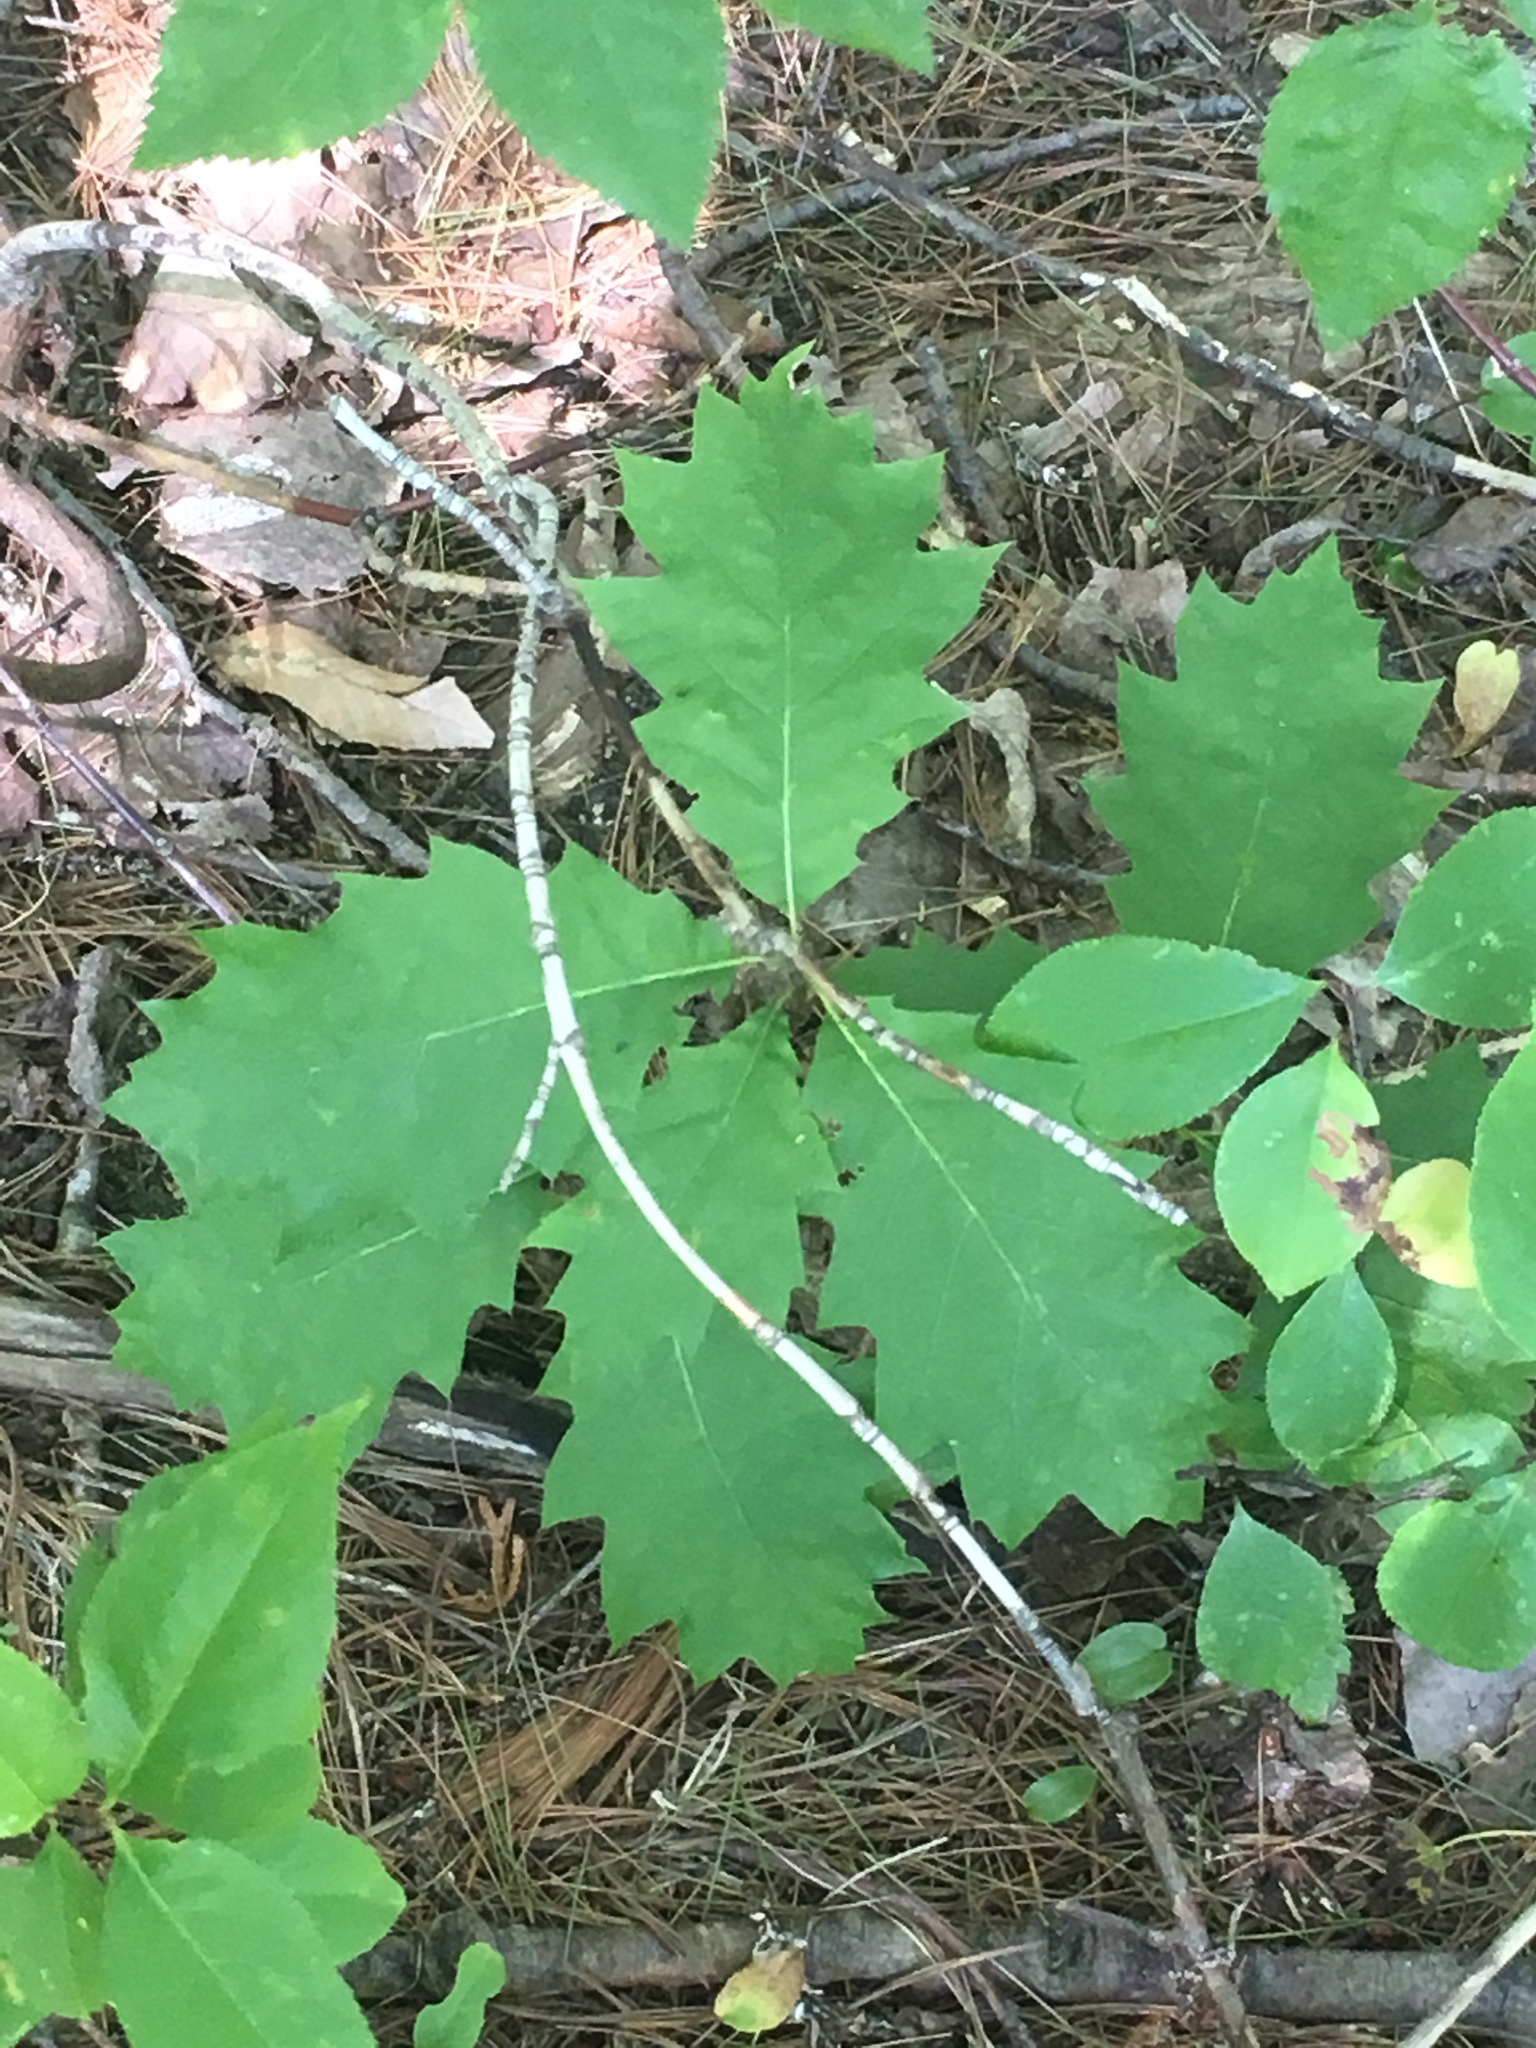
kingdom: Plantae
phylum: Tracheophyta
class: Magnoliopsida
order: Fagales
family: Fagaceae
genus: Quercus
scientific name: Quercus rubra
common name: Red oak
